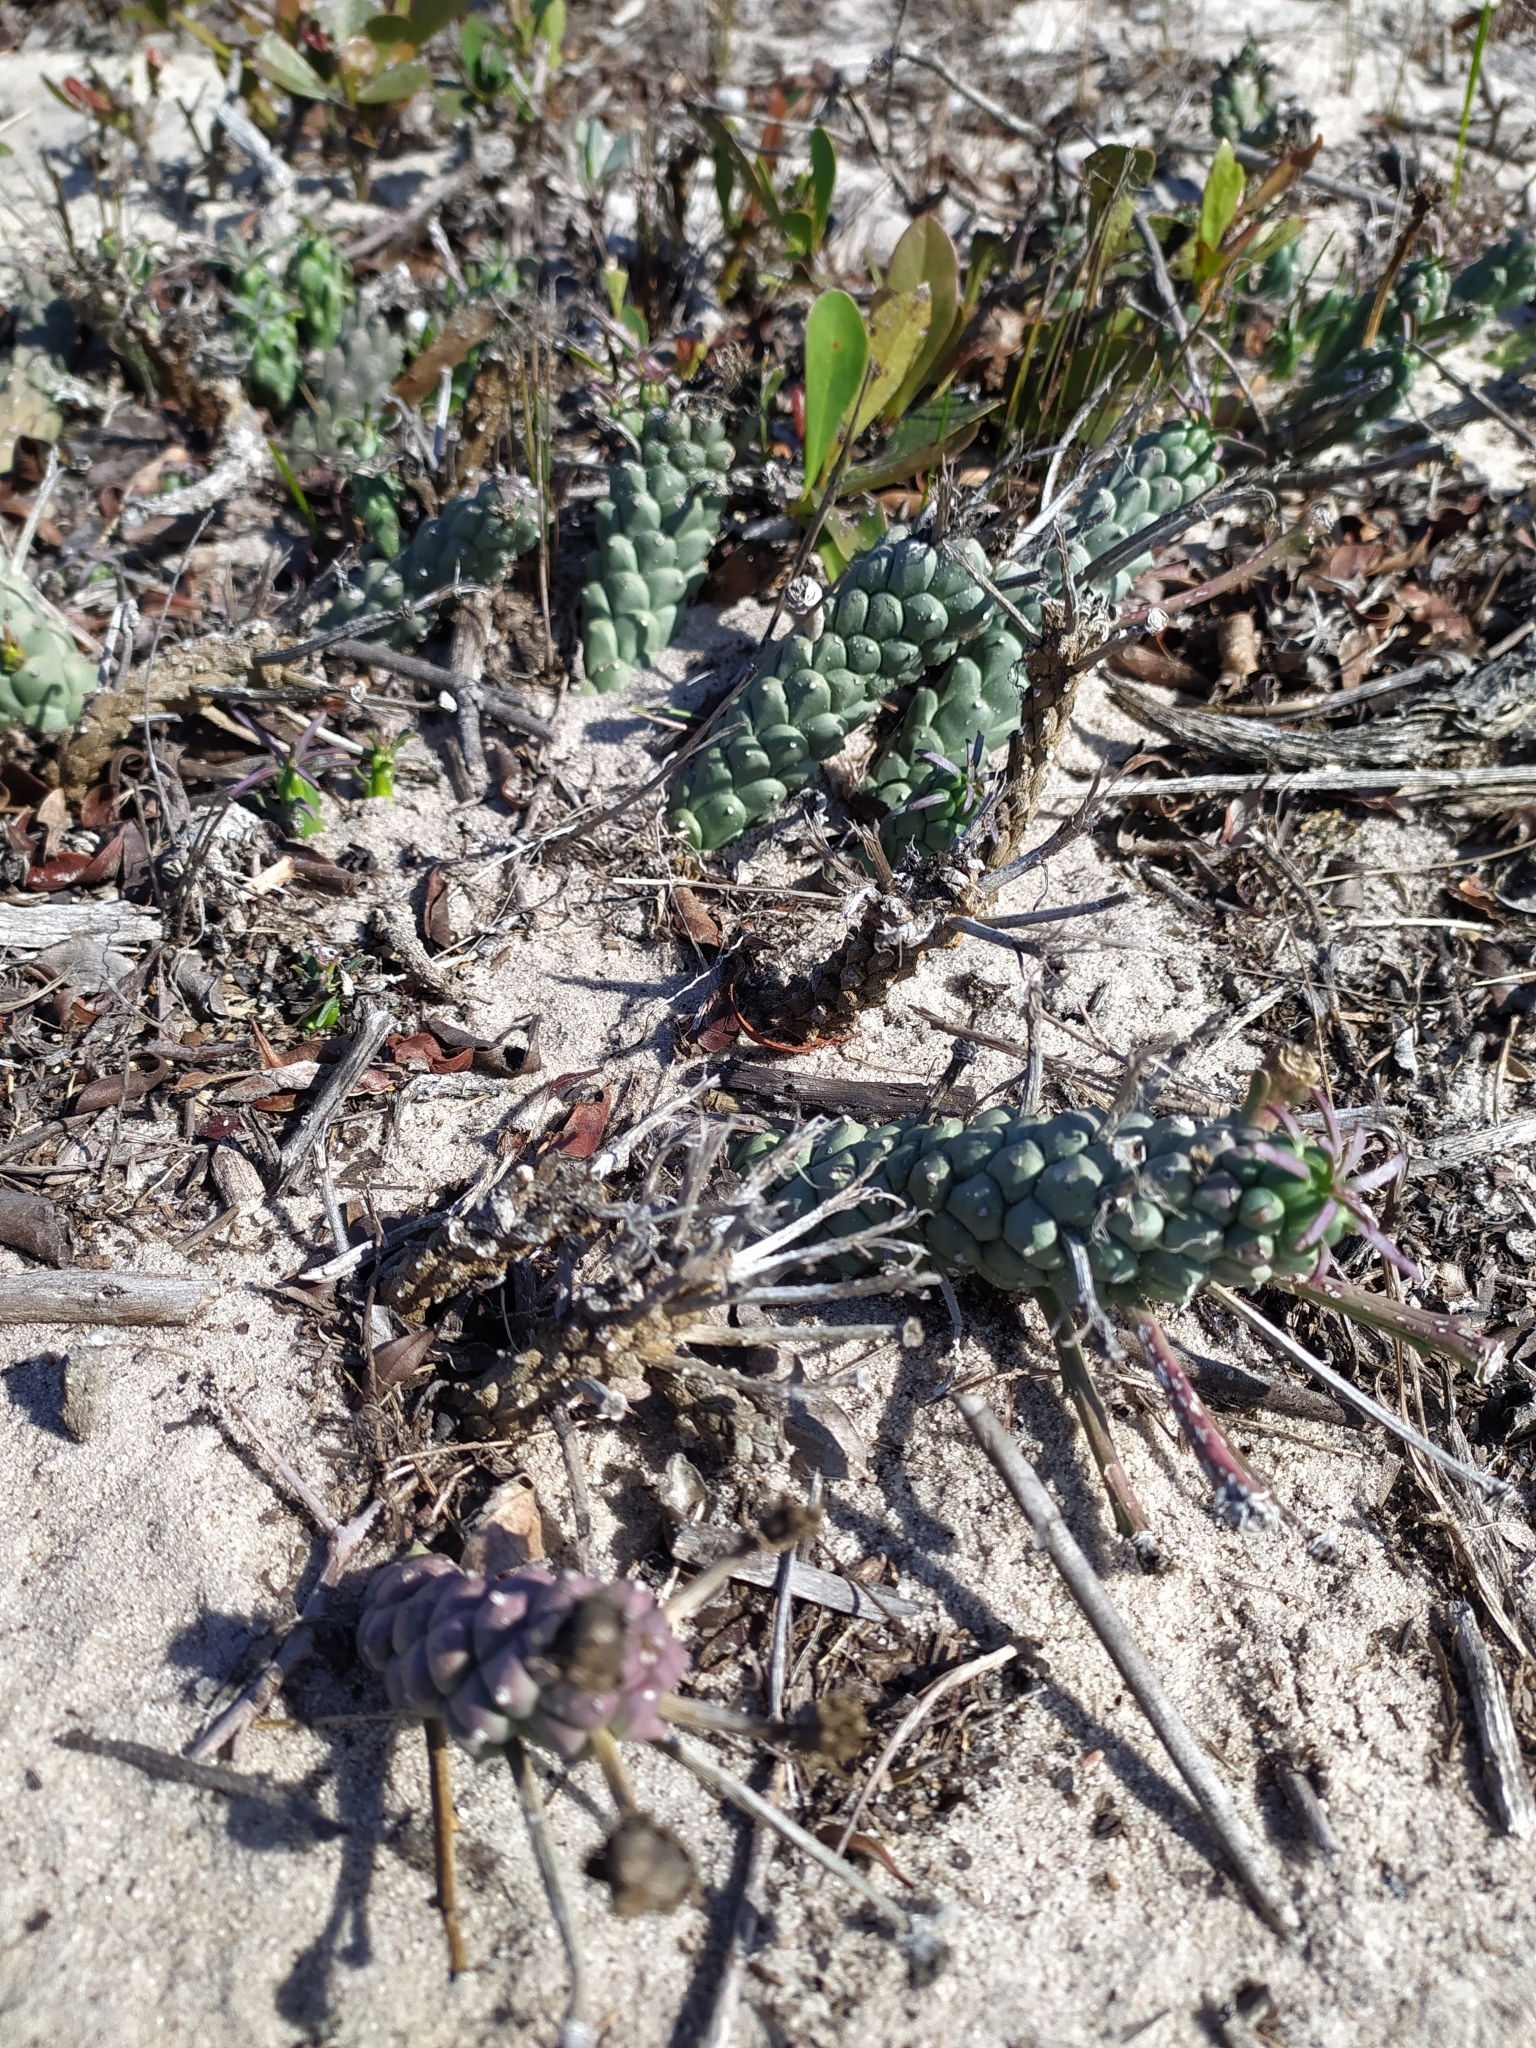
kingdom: Plantae
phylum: Tracheophyta
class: Magnoliopsida
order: Malpighiales
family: Euphorbiaceae
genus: Euphorbia
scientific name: Euphorbia caput-medusae
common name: Medusa's-head
